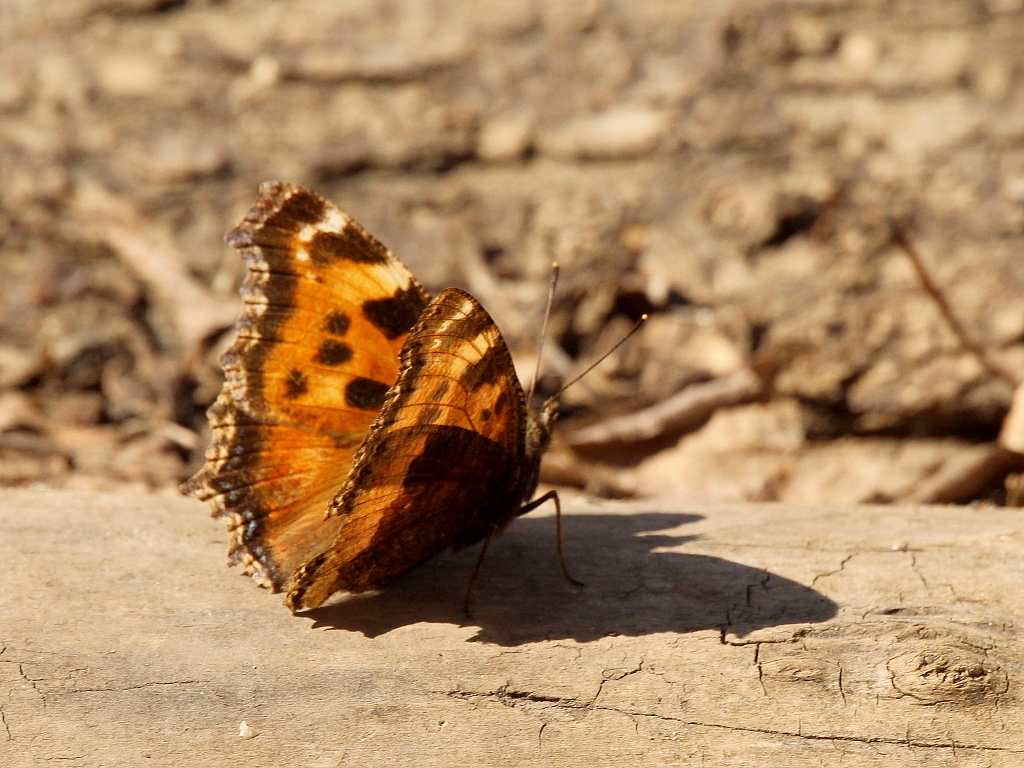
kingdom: Animalia
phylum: Arthropoda
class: Insecta
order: Lepidoptera
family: Nymphalidae
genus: Nymphalis
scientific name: Nymphalis xanthomelas
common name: Scarce tortoiseshell
